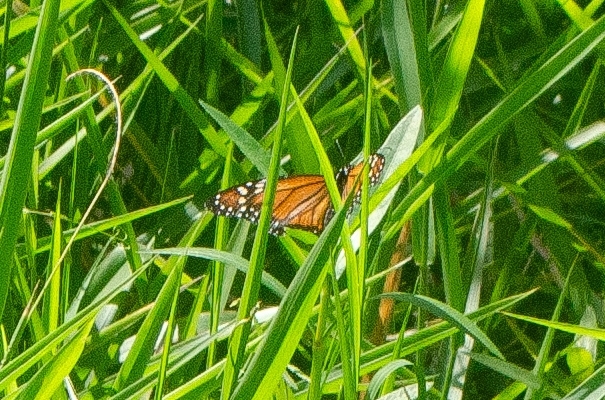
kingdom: Animalia
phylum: Arthropoda
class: Insecta
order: Lepidoptera
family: Nymphalidae
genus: Danaus
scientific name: Danaus erippus
